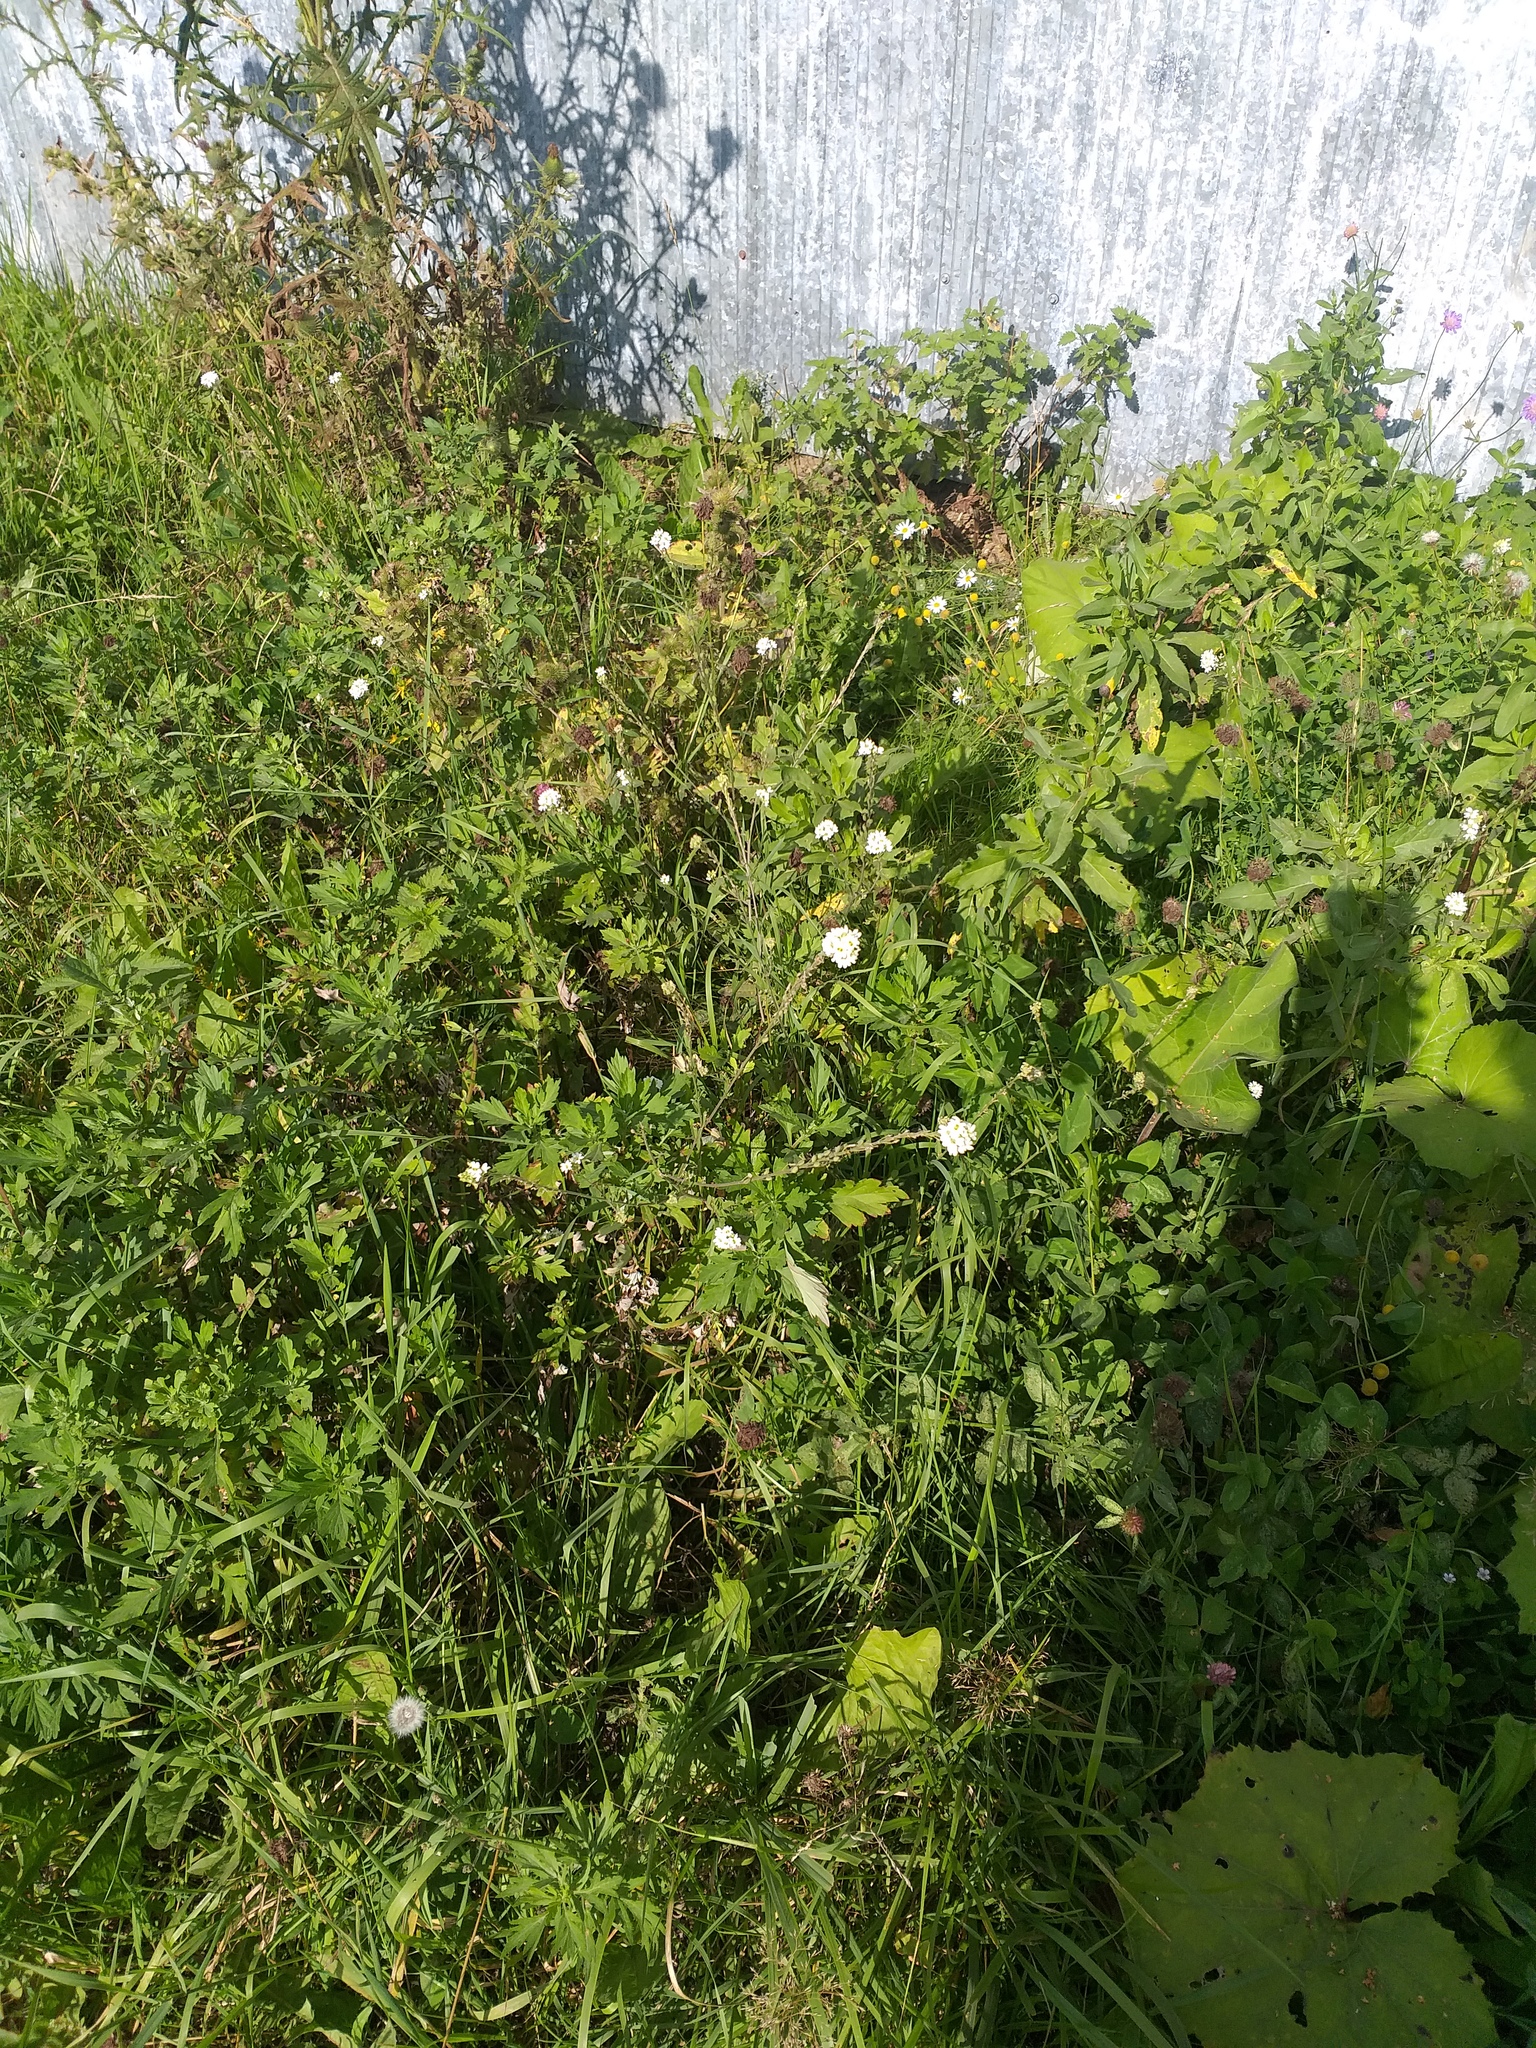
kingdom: Plantae
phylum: Tracheophyta
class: Magnoliopsida
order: Brassicales
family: Brassicaceae
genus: Berteroa
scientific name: Berteroa incana
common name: Hoary alison
